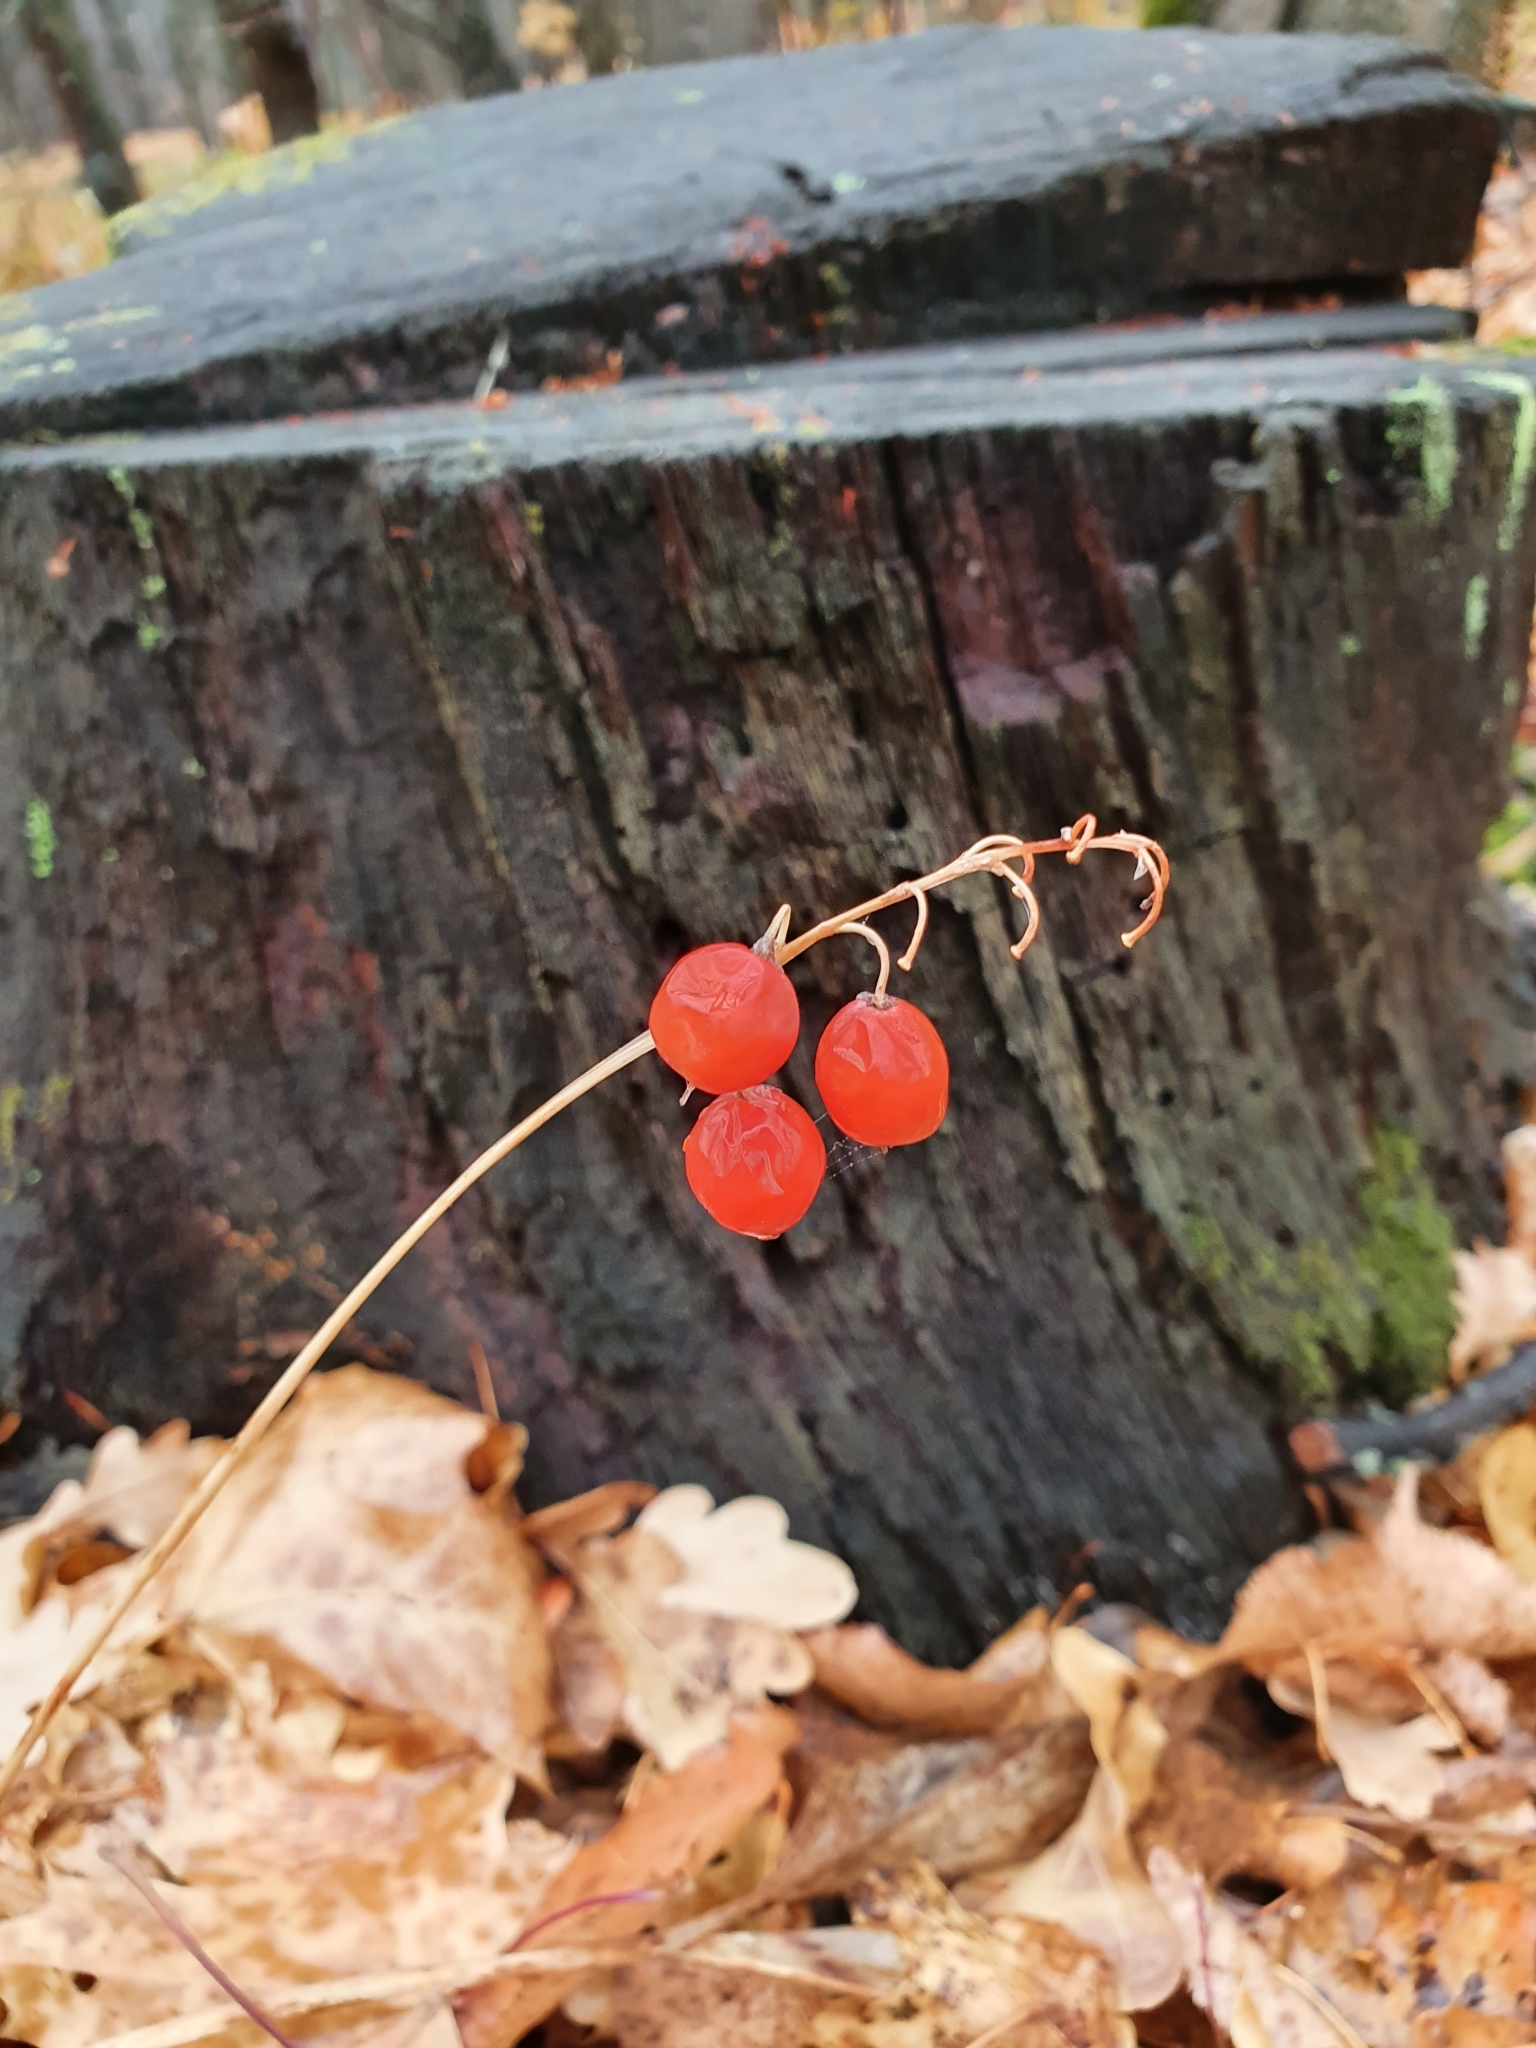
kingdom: Plantae
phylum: Tracheophyta
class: Liliopsida
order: Asparagales
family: Asparagaceae
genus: Convallaria
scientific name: Convallaria majalis
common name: Lily-of-the-valley
